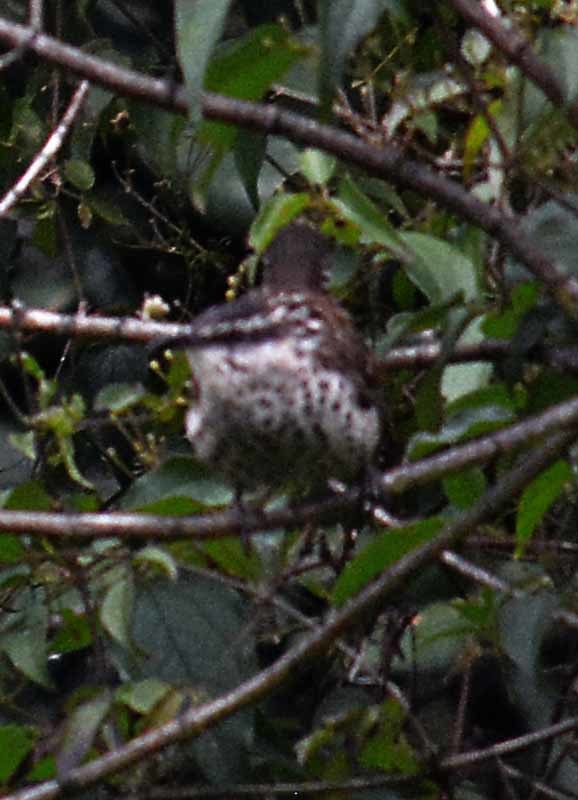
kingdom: Animalia
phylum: Chordata
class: Aves
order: Passeriformes
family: Troglodytidae
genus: Campylorhynchus
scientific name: Campylorhynchus jocosus
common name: Boucard's wren
